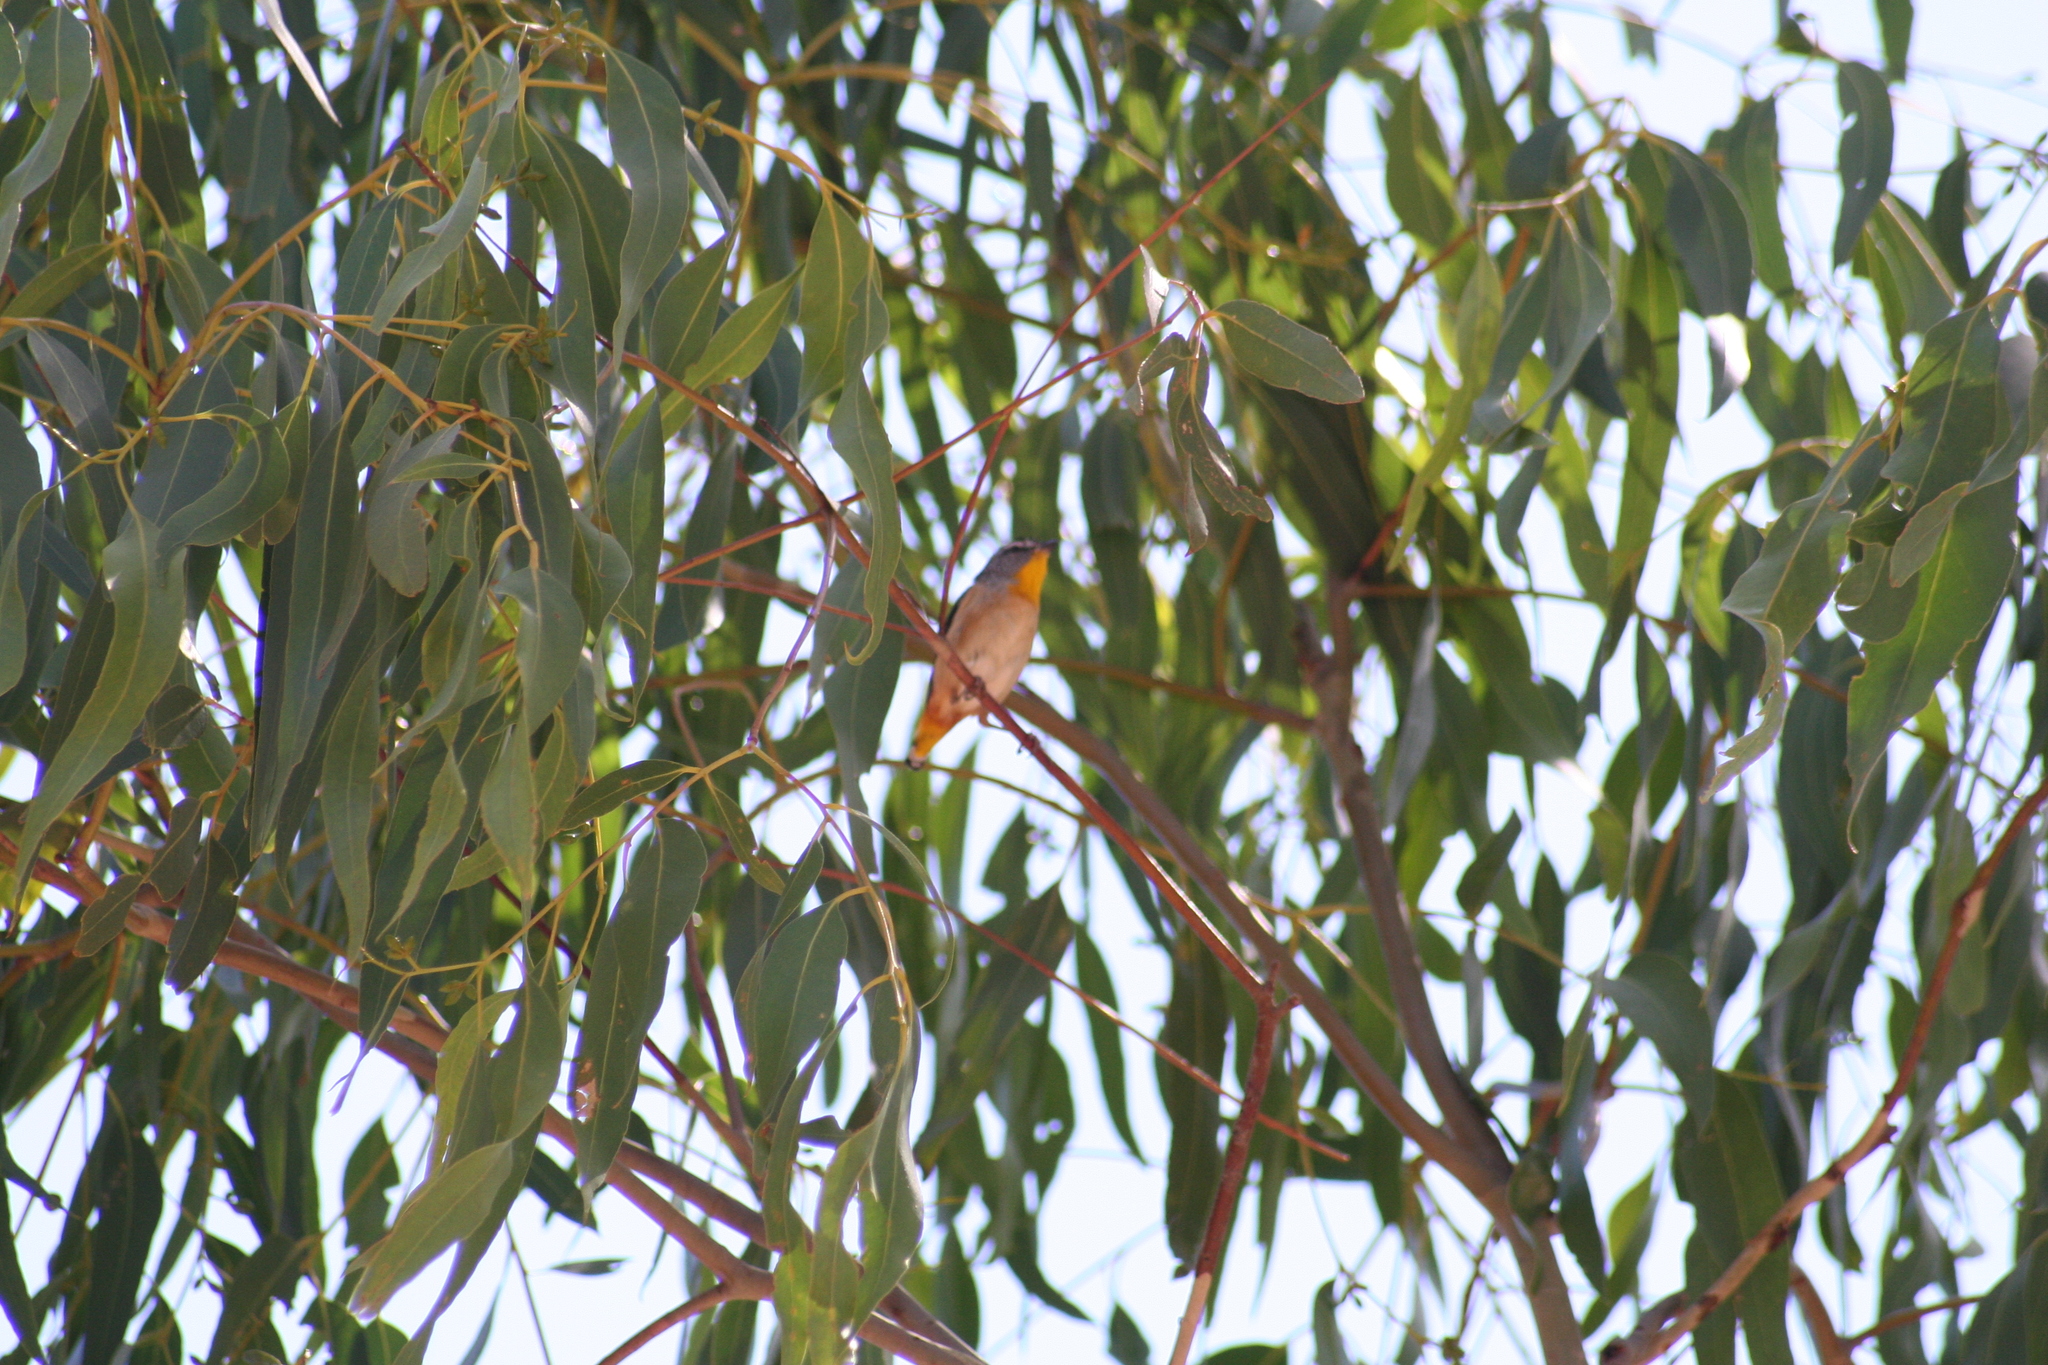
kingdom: Animalia
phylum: Chordata
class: Aves
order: Passeriformes
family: Pardalotidae
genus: Pardalotus
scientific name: Pardalotus punctatus
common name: Spotted pardalote
